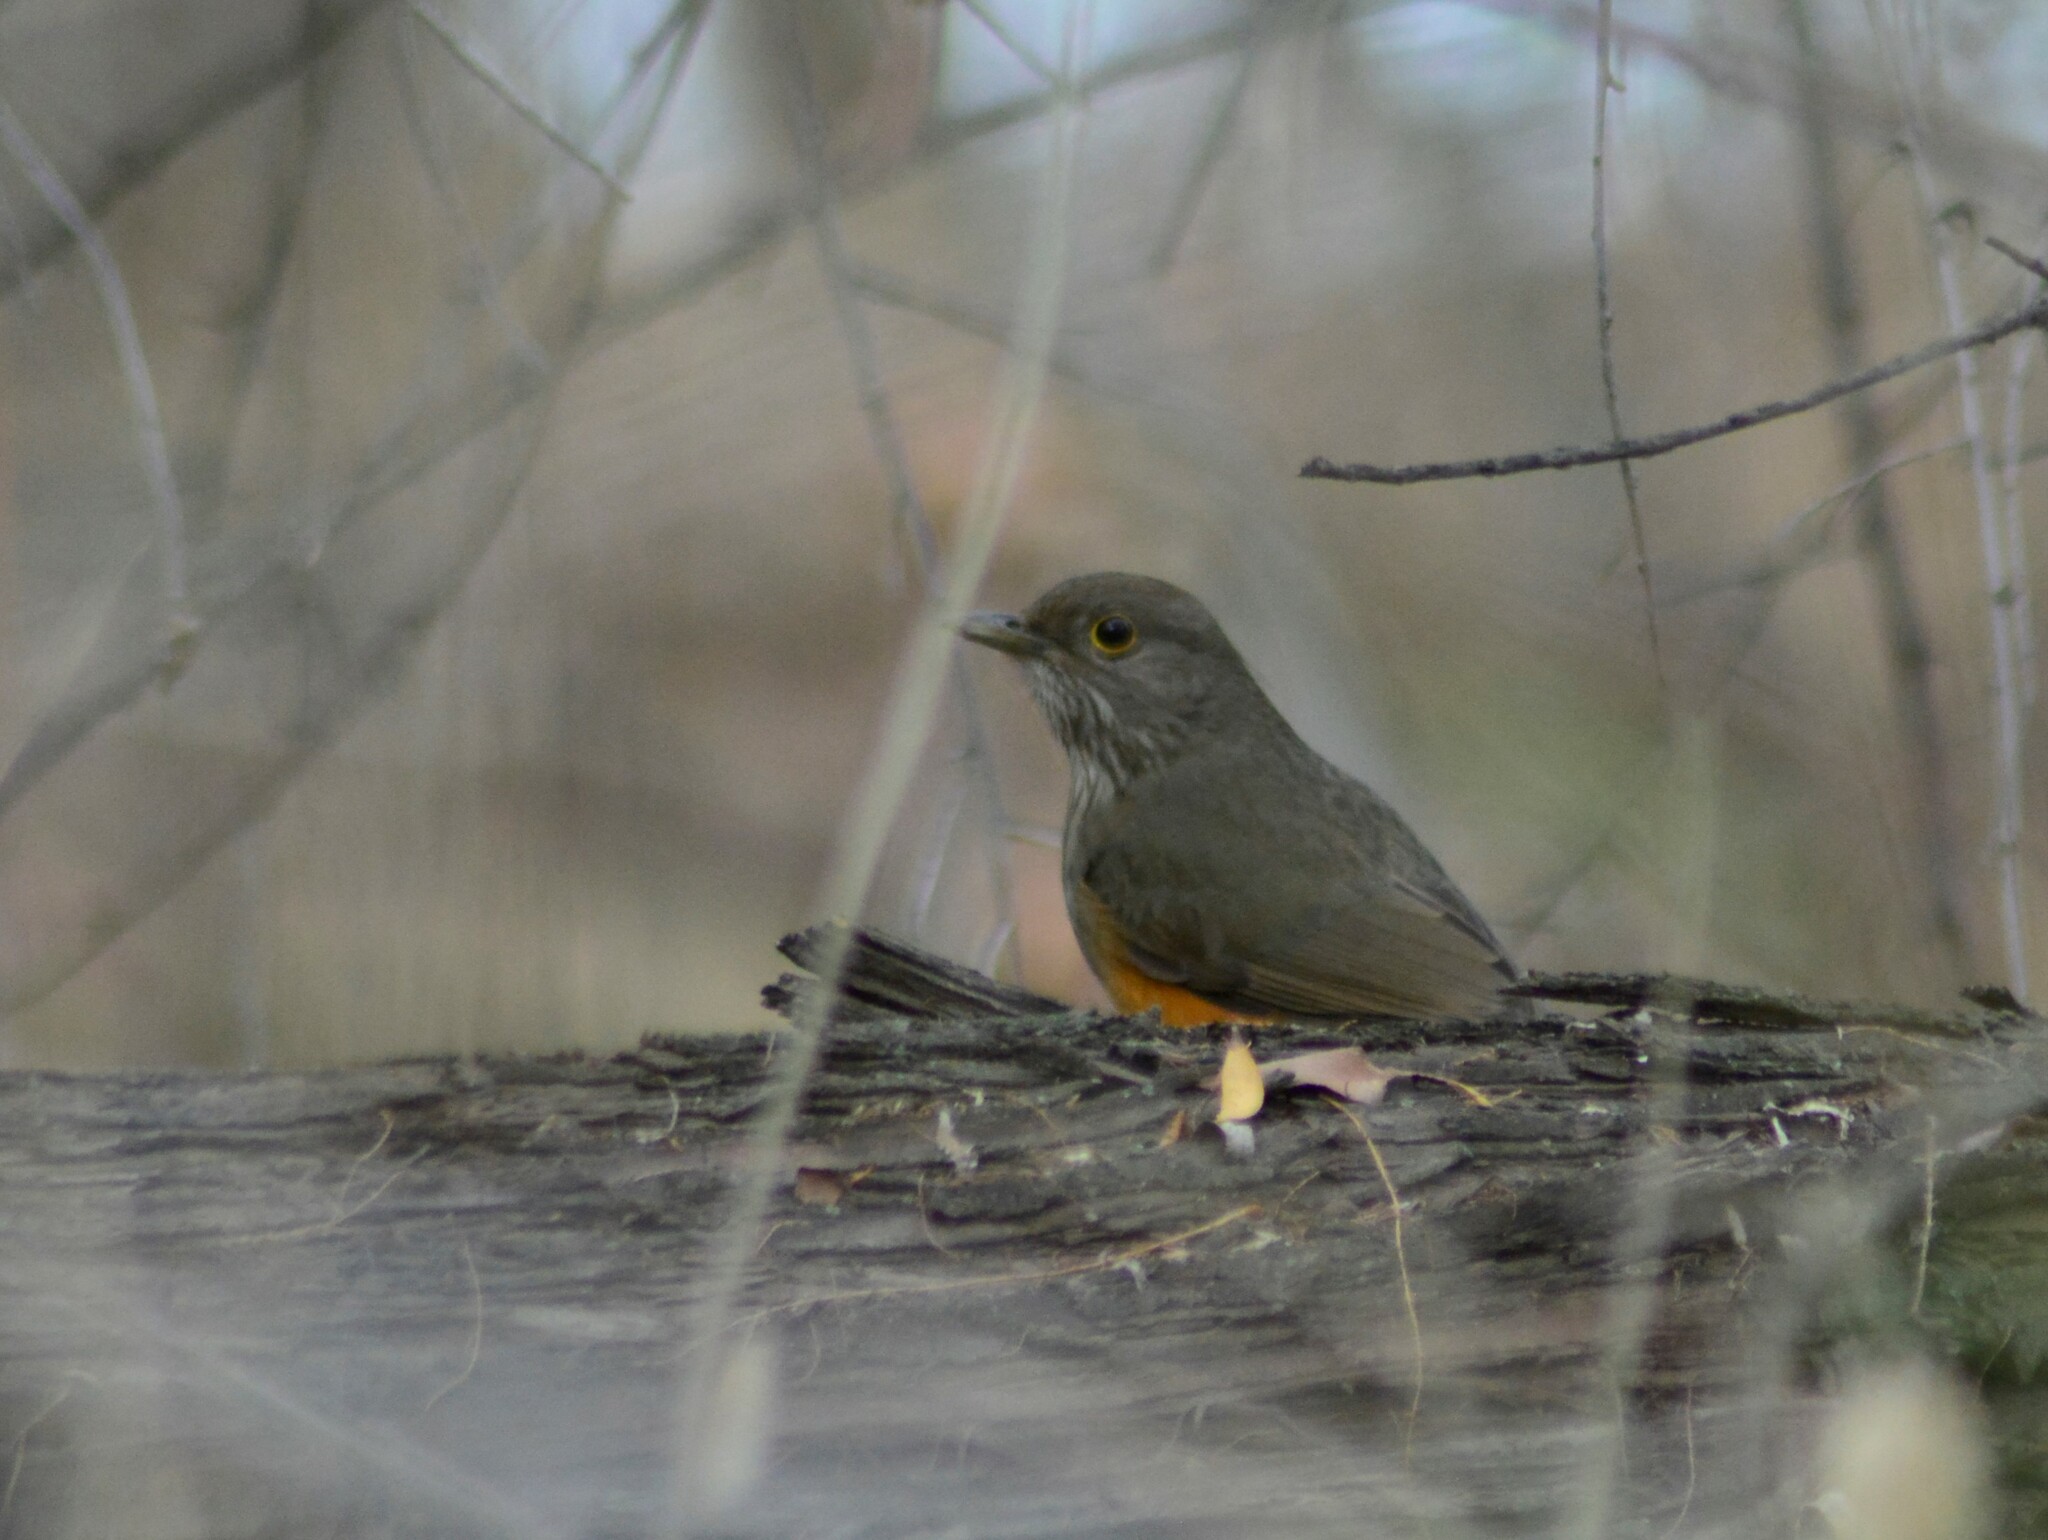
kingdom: Animalia
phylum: Chordata
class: Aves
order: Passeriformes
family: Turdidae
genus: Turdus
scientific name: Turdus rufiventris
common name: Rufous-bellied thrush
